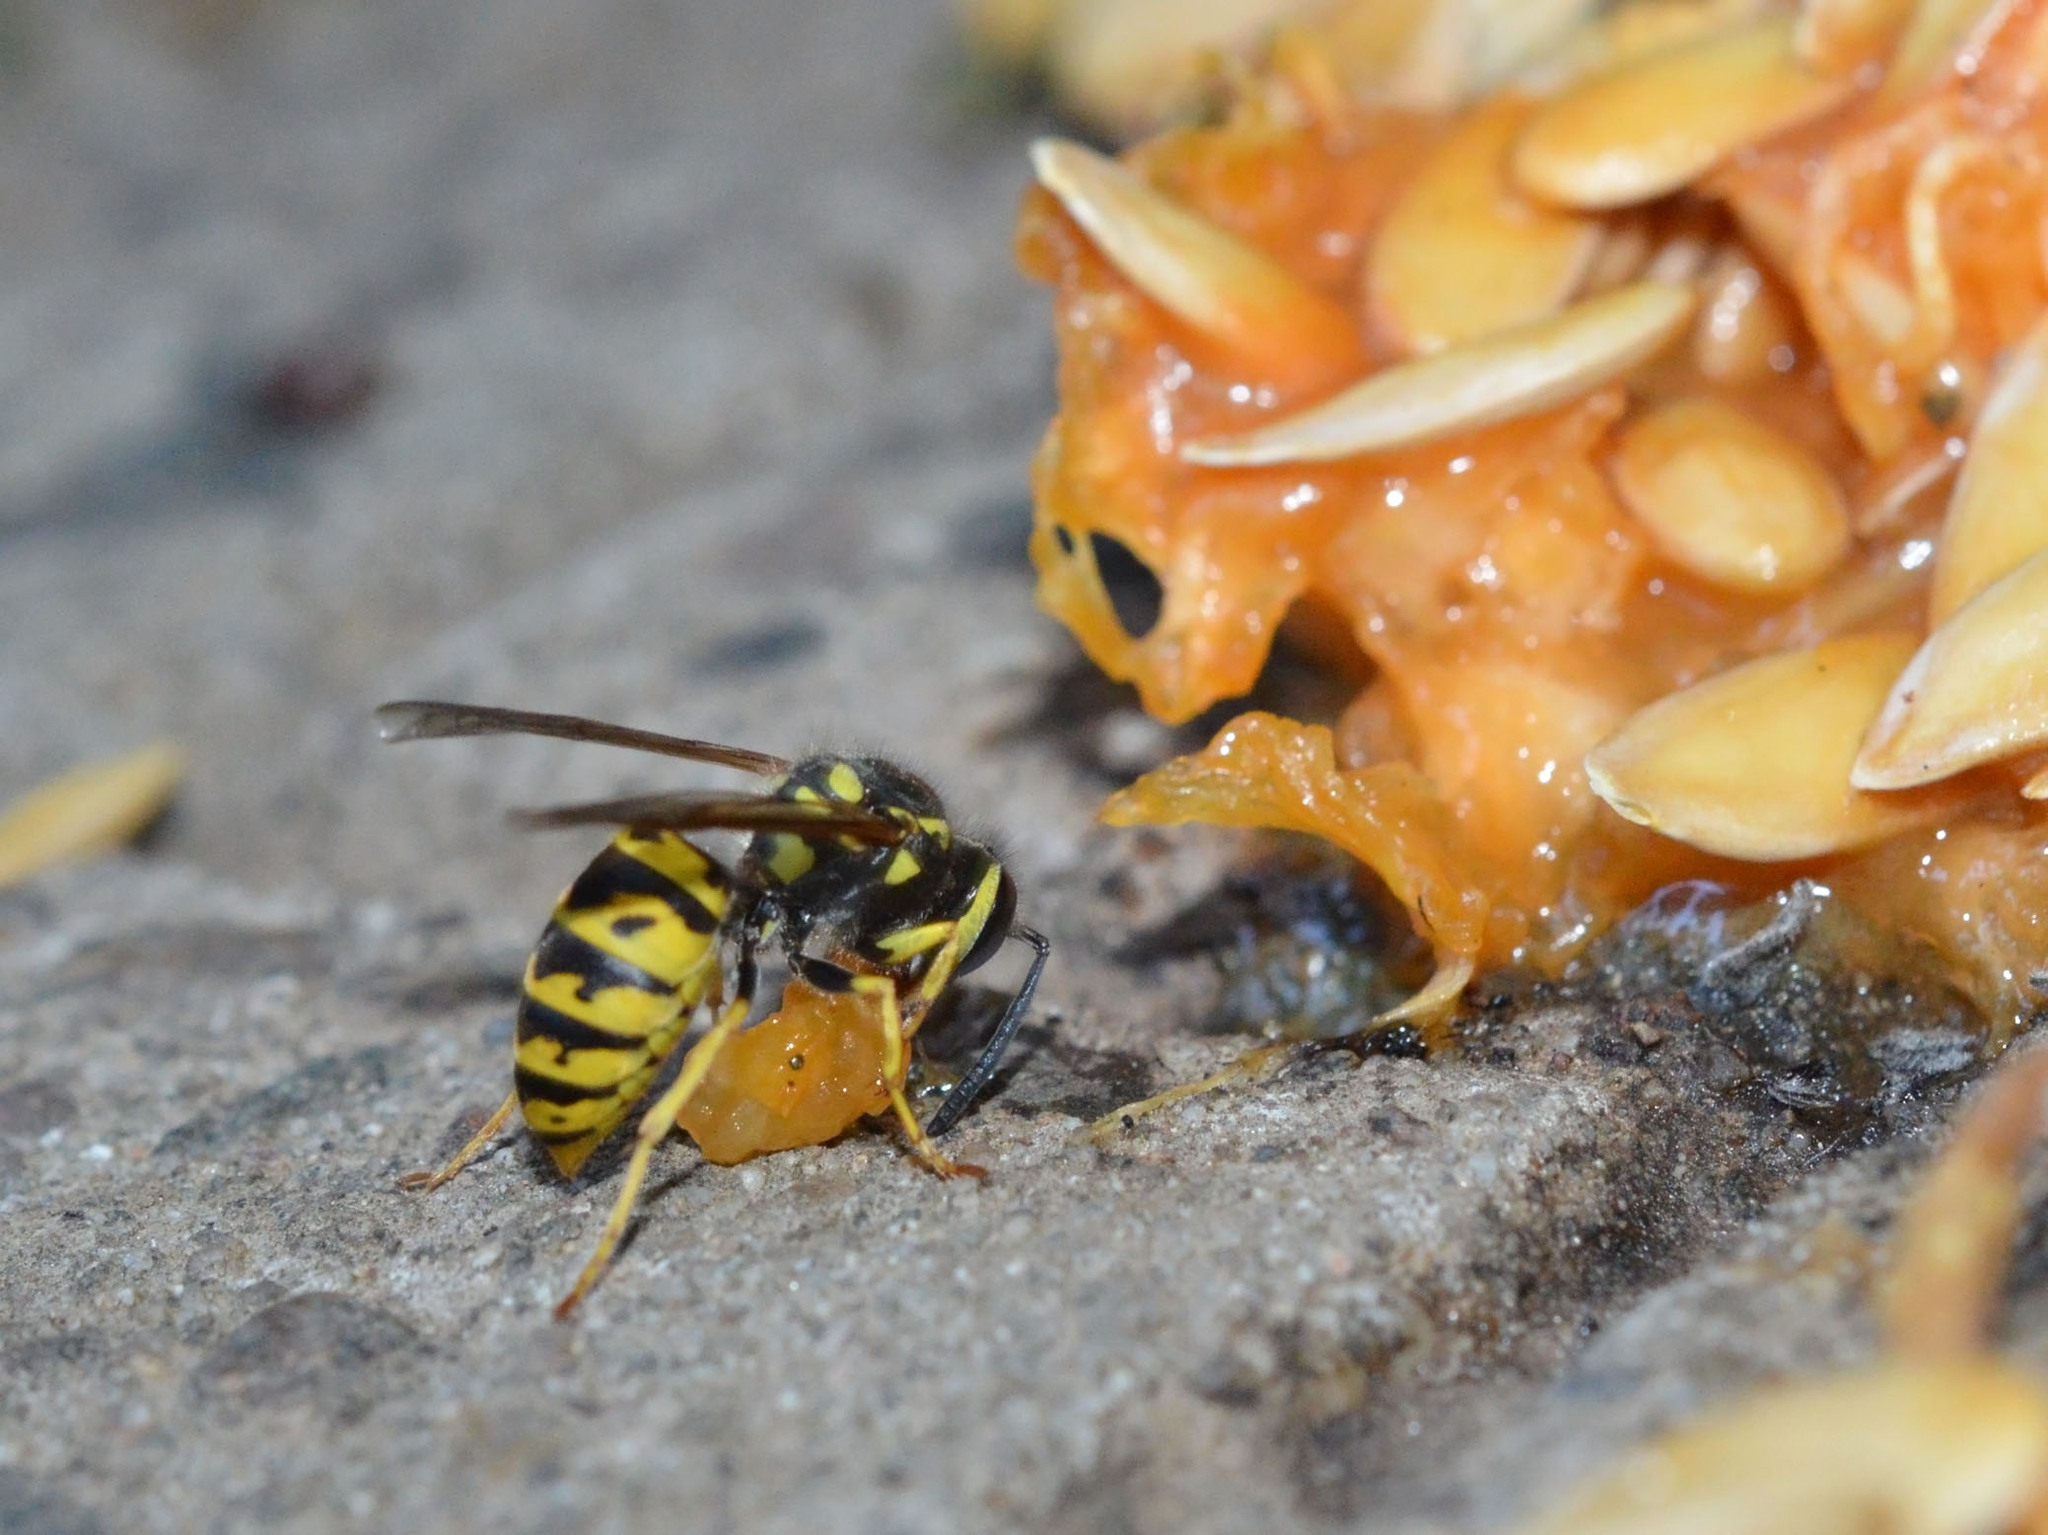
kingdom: Animalia
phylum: Arthropoda
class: Insecta
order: Hymenoptera
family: Vespidae
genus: Vespula
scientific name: Vespula germanica
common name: German wasp
